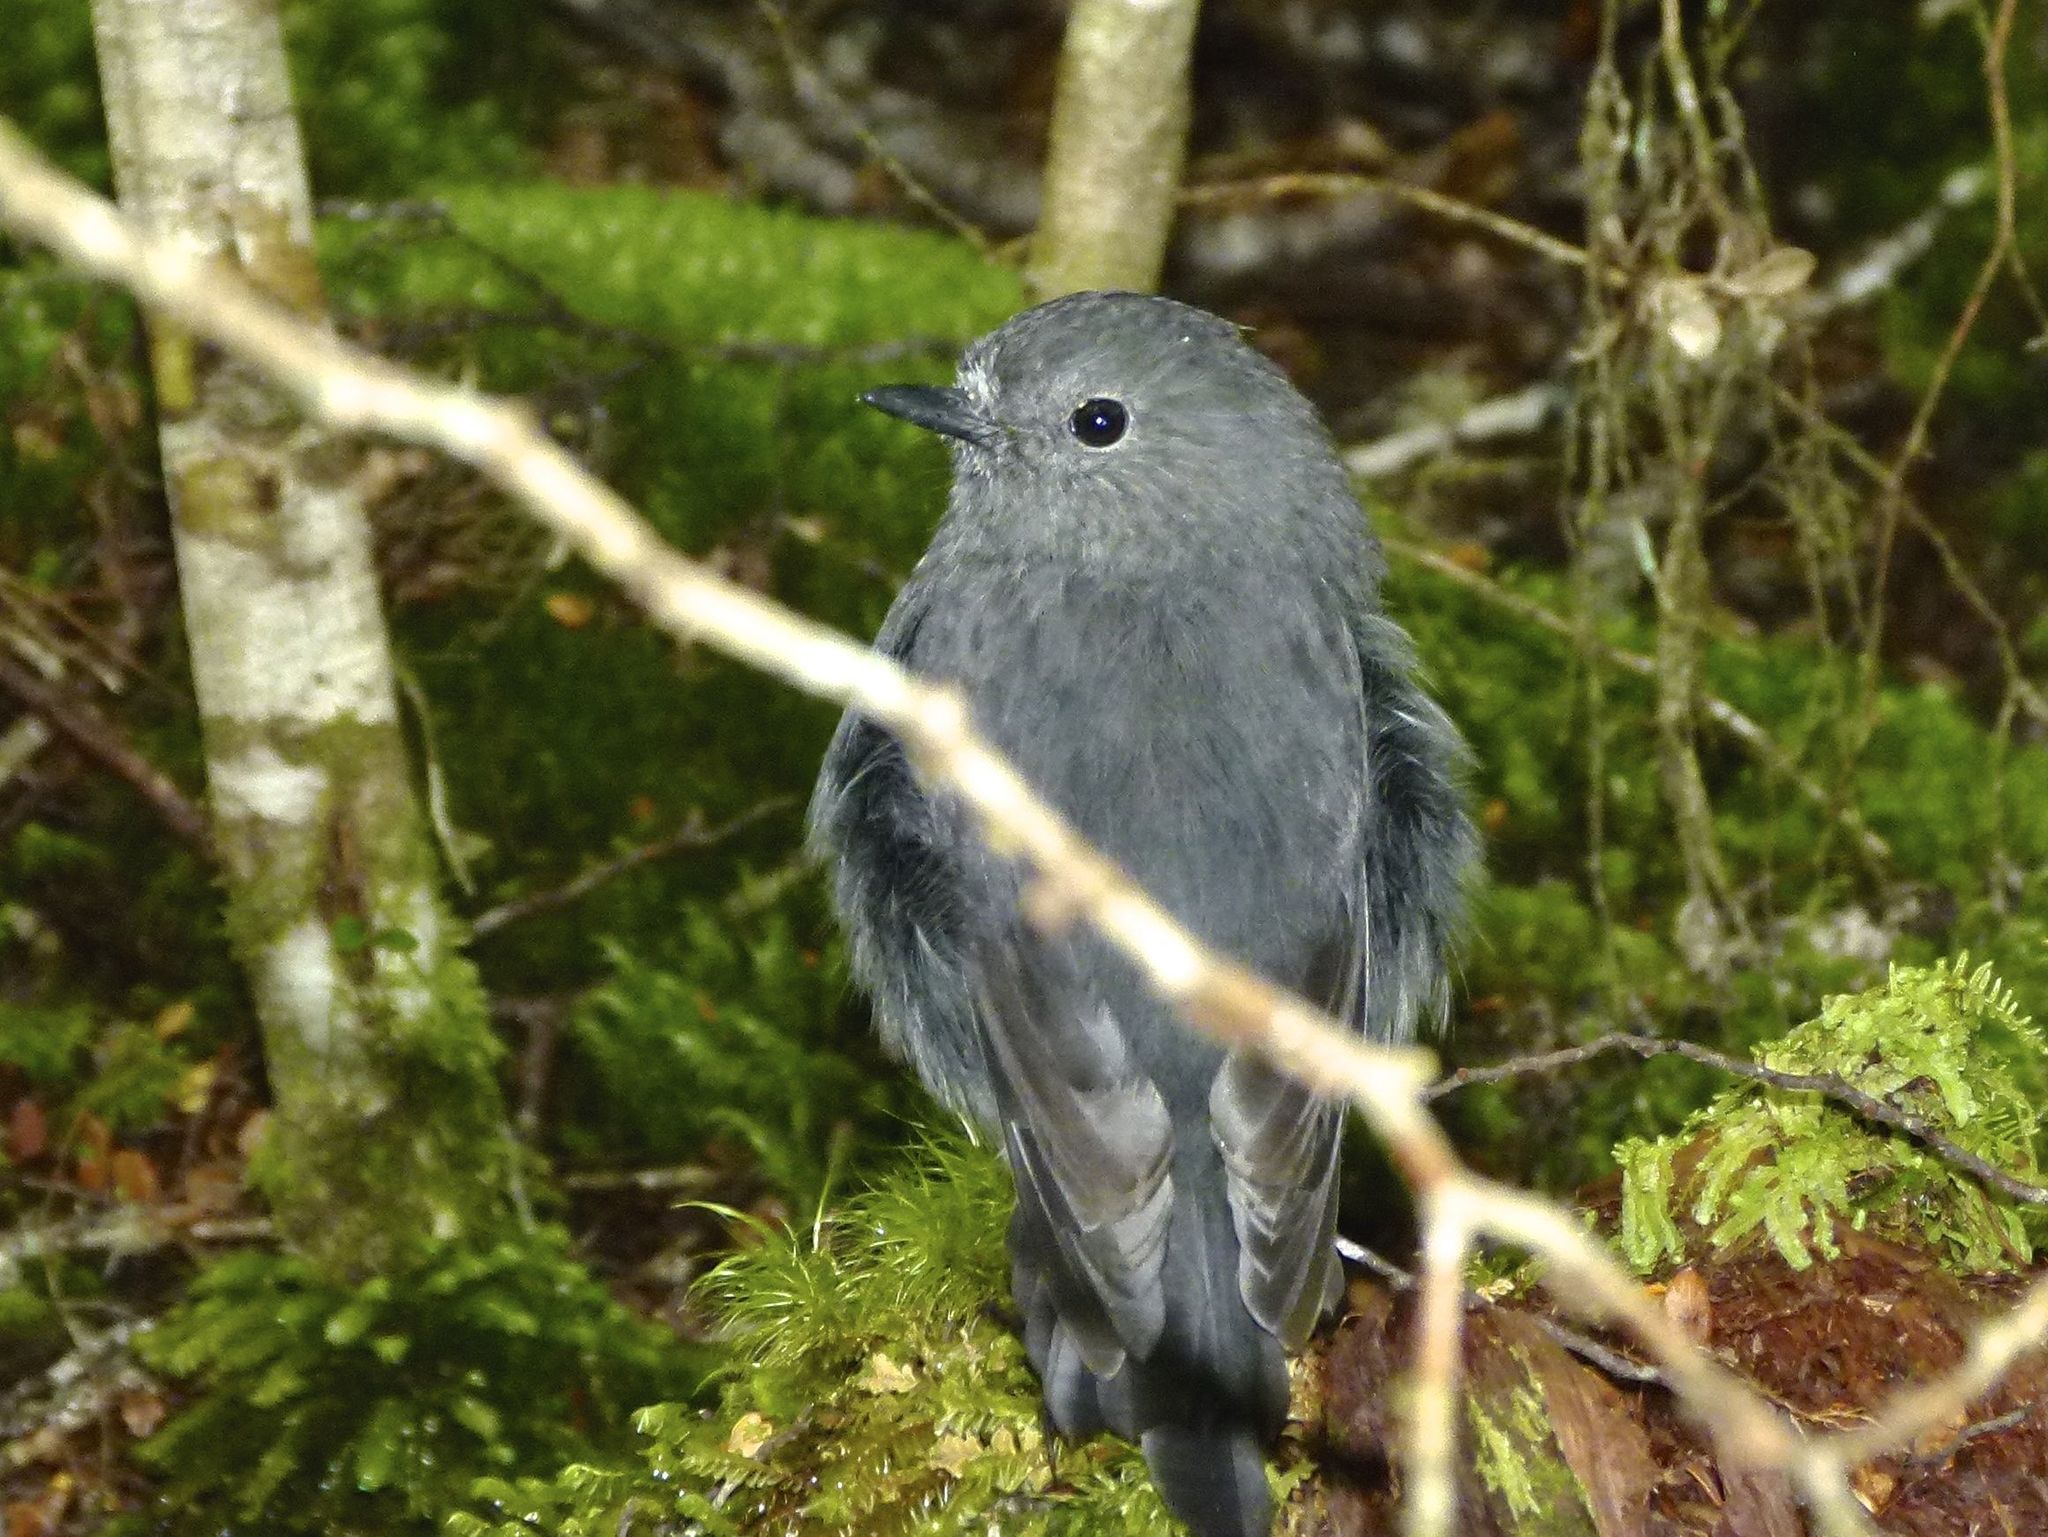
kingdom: Animalia
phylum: Chordata
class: Aves
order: Passeriformes
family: Petroicidae
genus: Petroica
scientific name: Petroica australis
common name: New zealand robin
